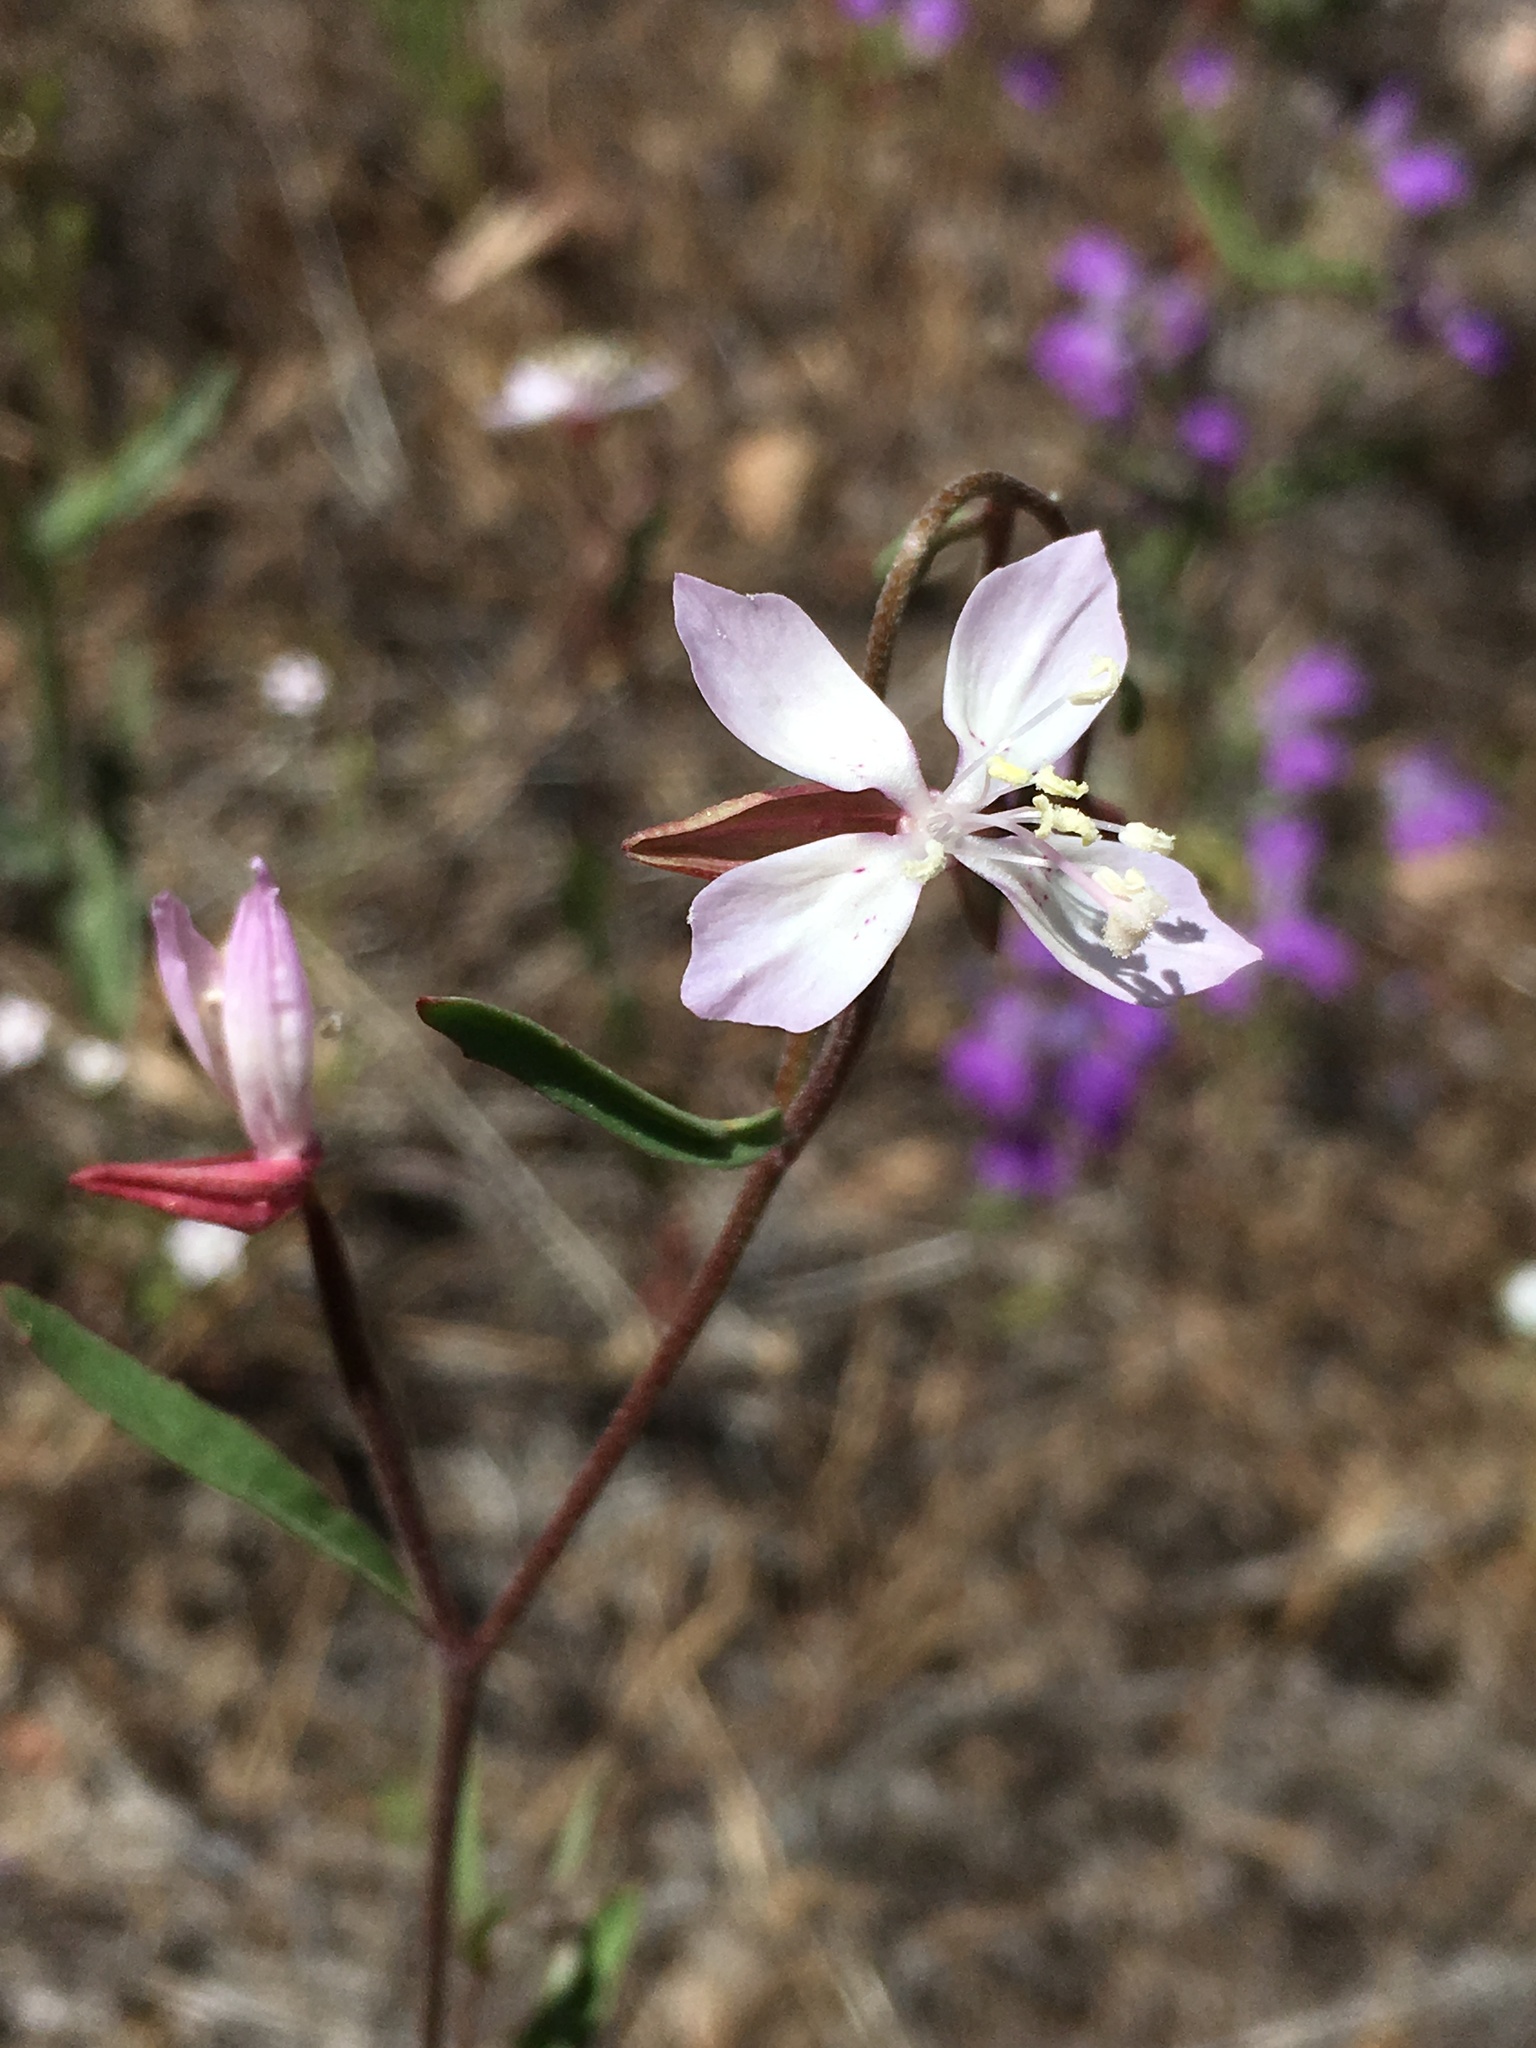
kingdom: Plantae
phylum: Tracheophyta
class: Magnoliopsida
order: Myrtales
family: Onagraceae
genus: Clarkia
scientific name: Clarkia similis
